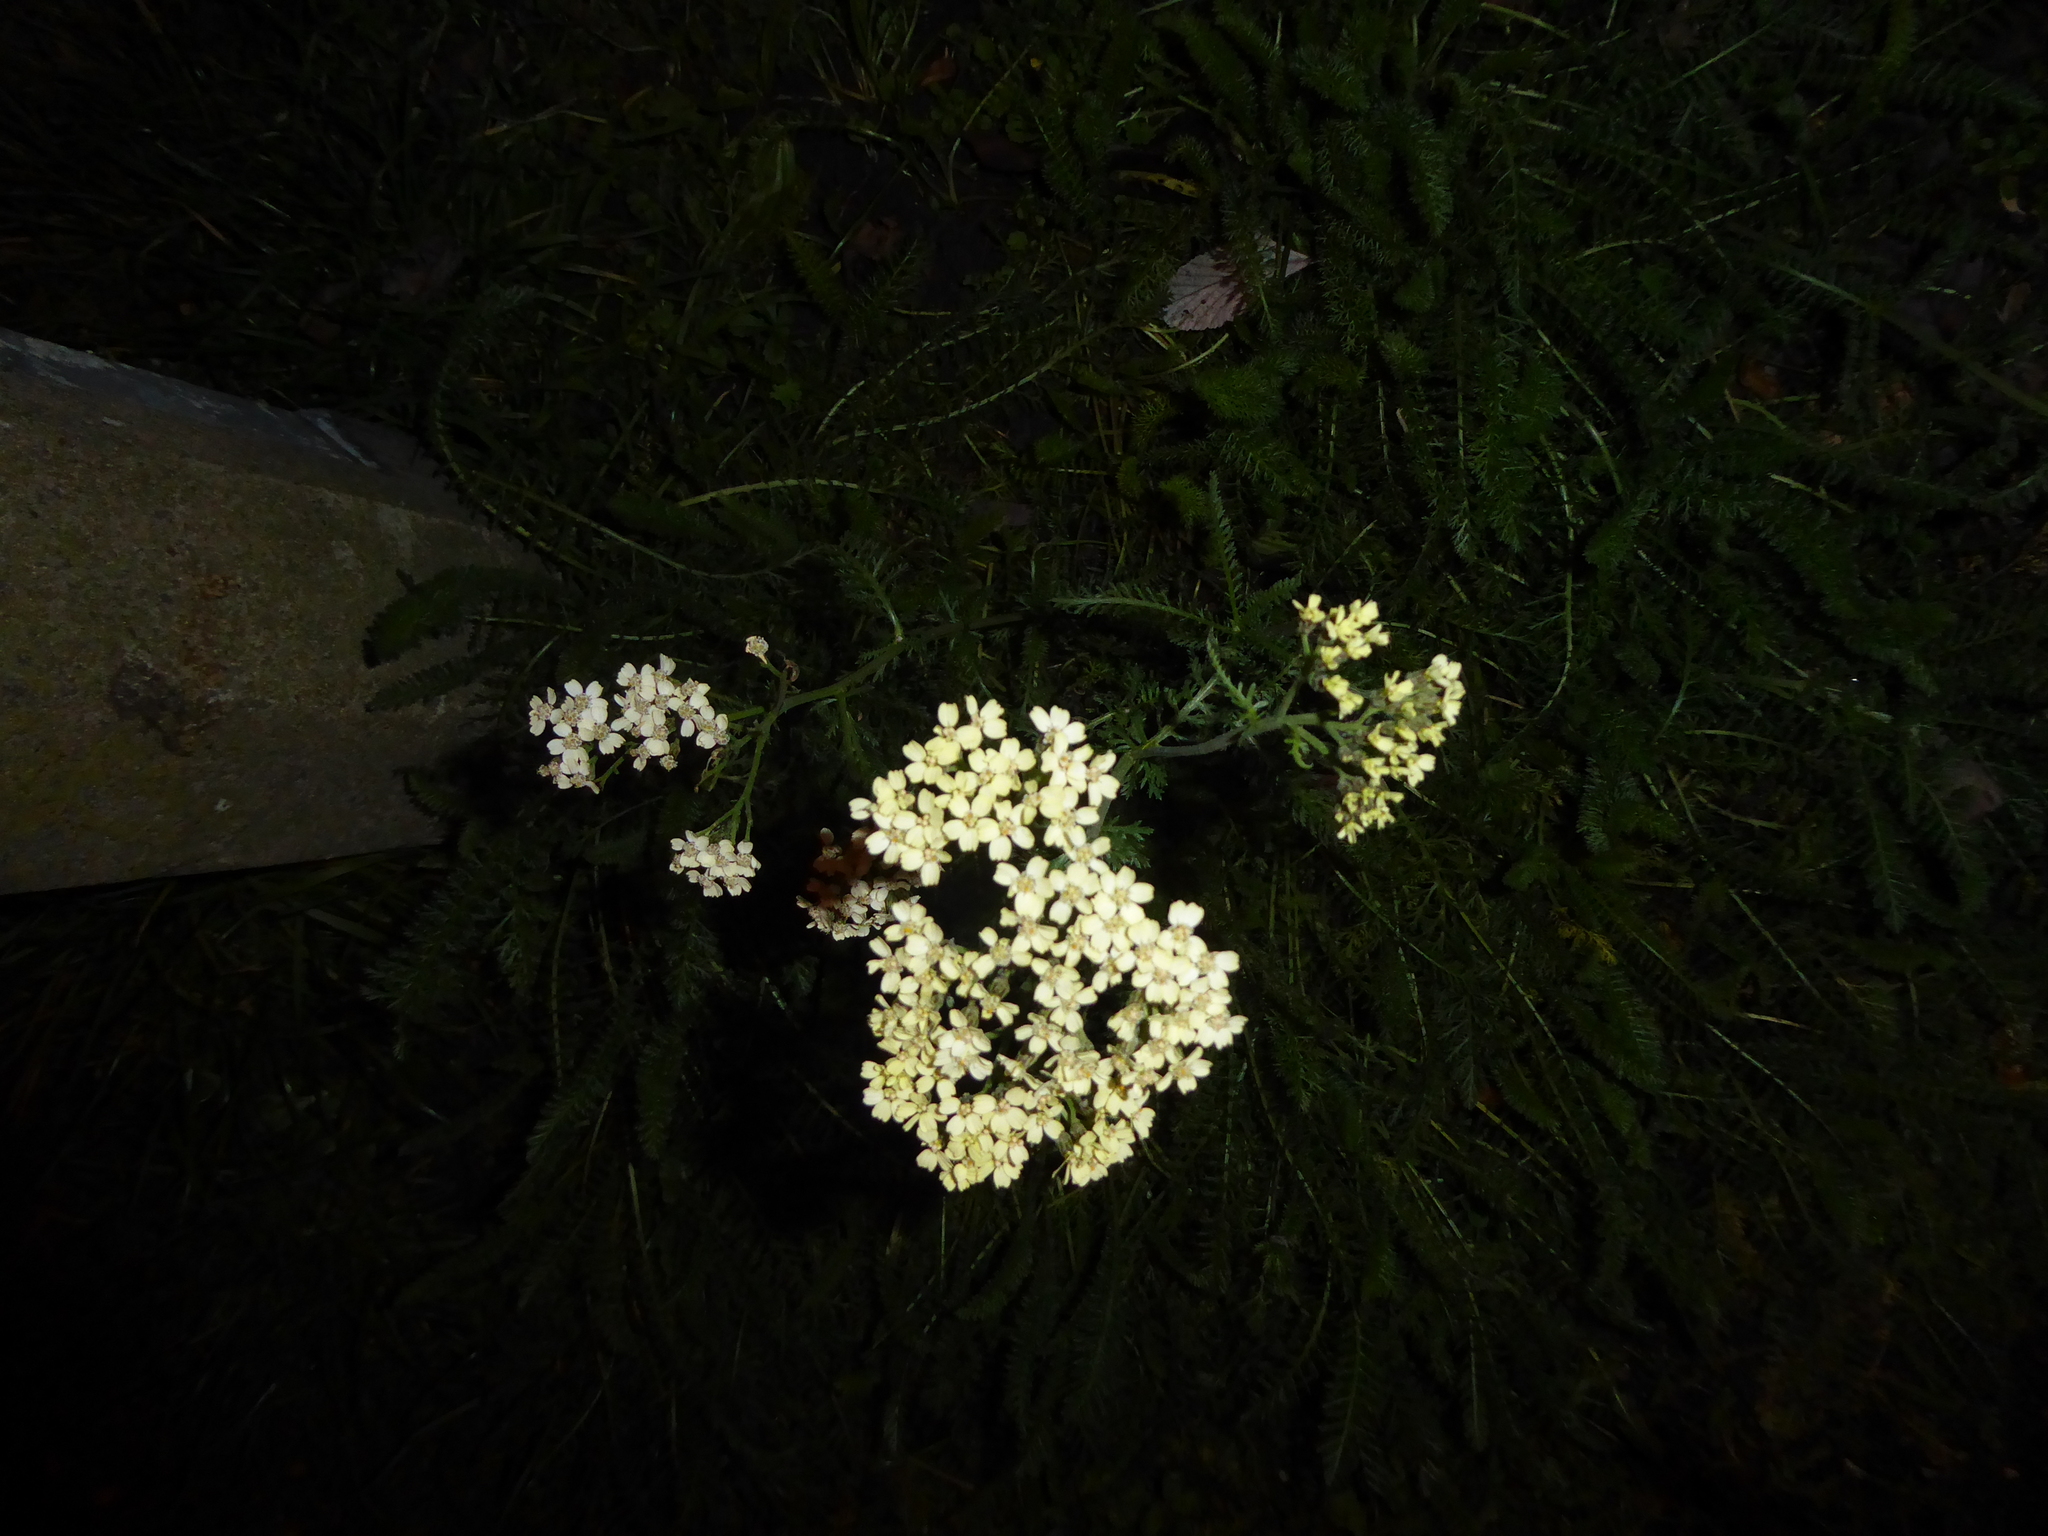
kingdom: Plantae
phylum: Tracheophyta
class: Magnoliopsida
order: Asterales
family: Asteraceae
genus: Achillea
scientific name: Achillea millefolium
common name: Yarrow
